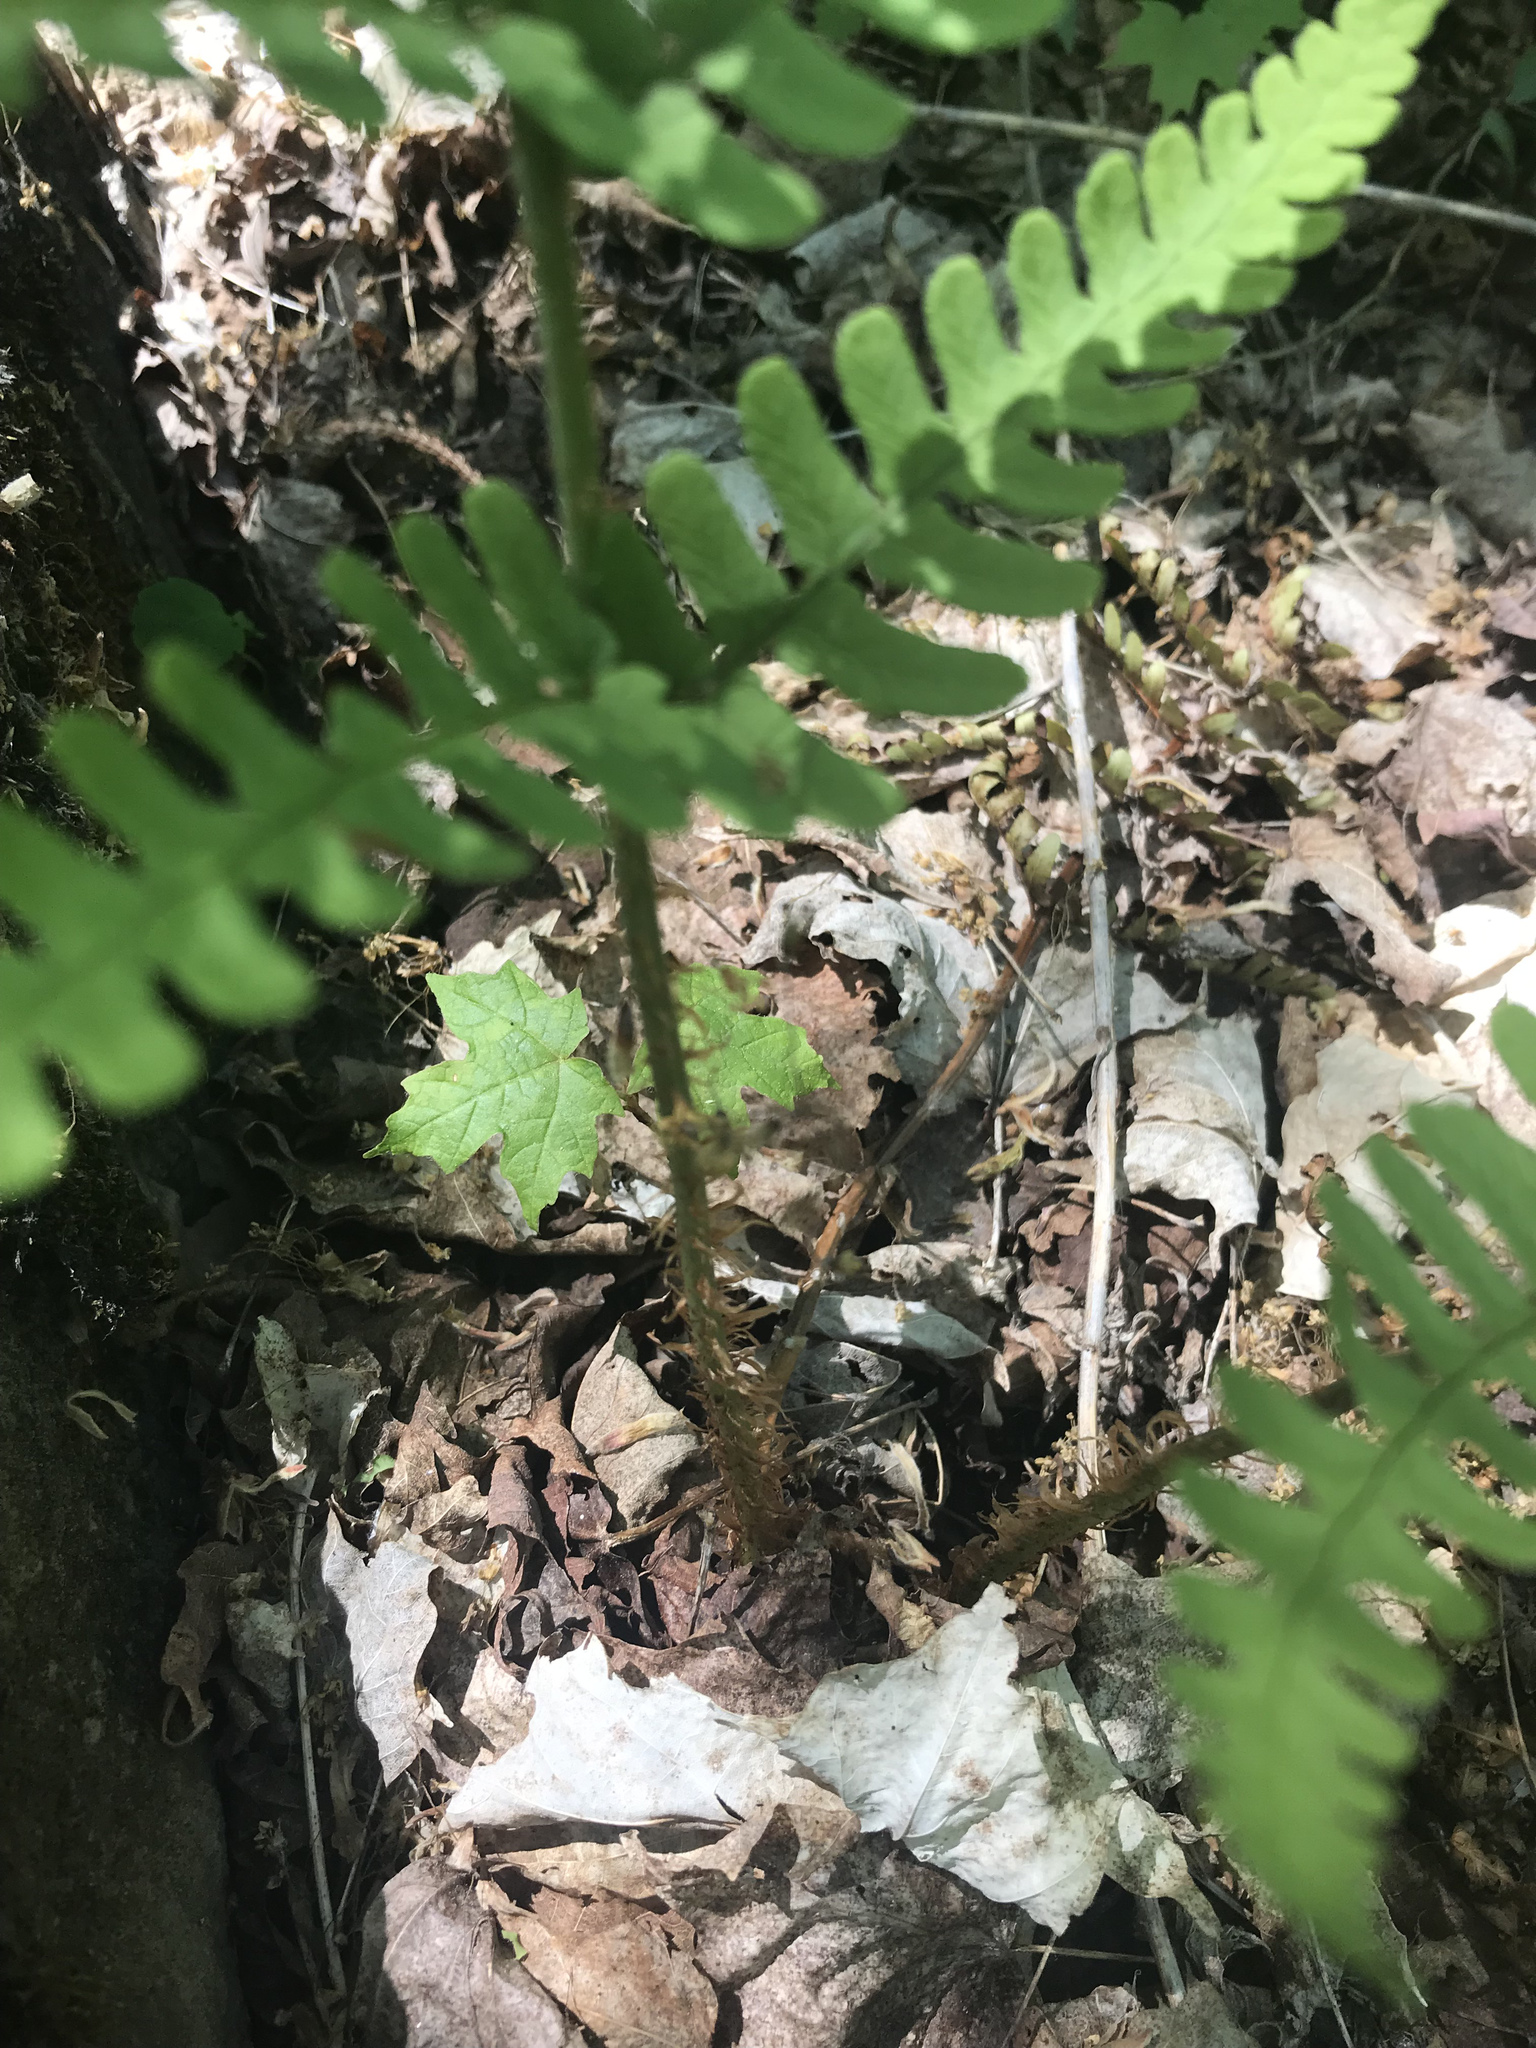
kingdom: Plantae
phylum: Tracheophyta
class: Polypodiopsida
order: Polypodiales
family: Dryopteridaceae
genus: Dryopteris
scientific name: Dryopteris marginalis
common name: Marginal wood fern
